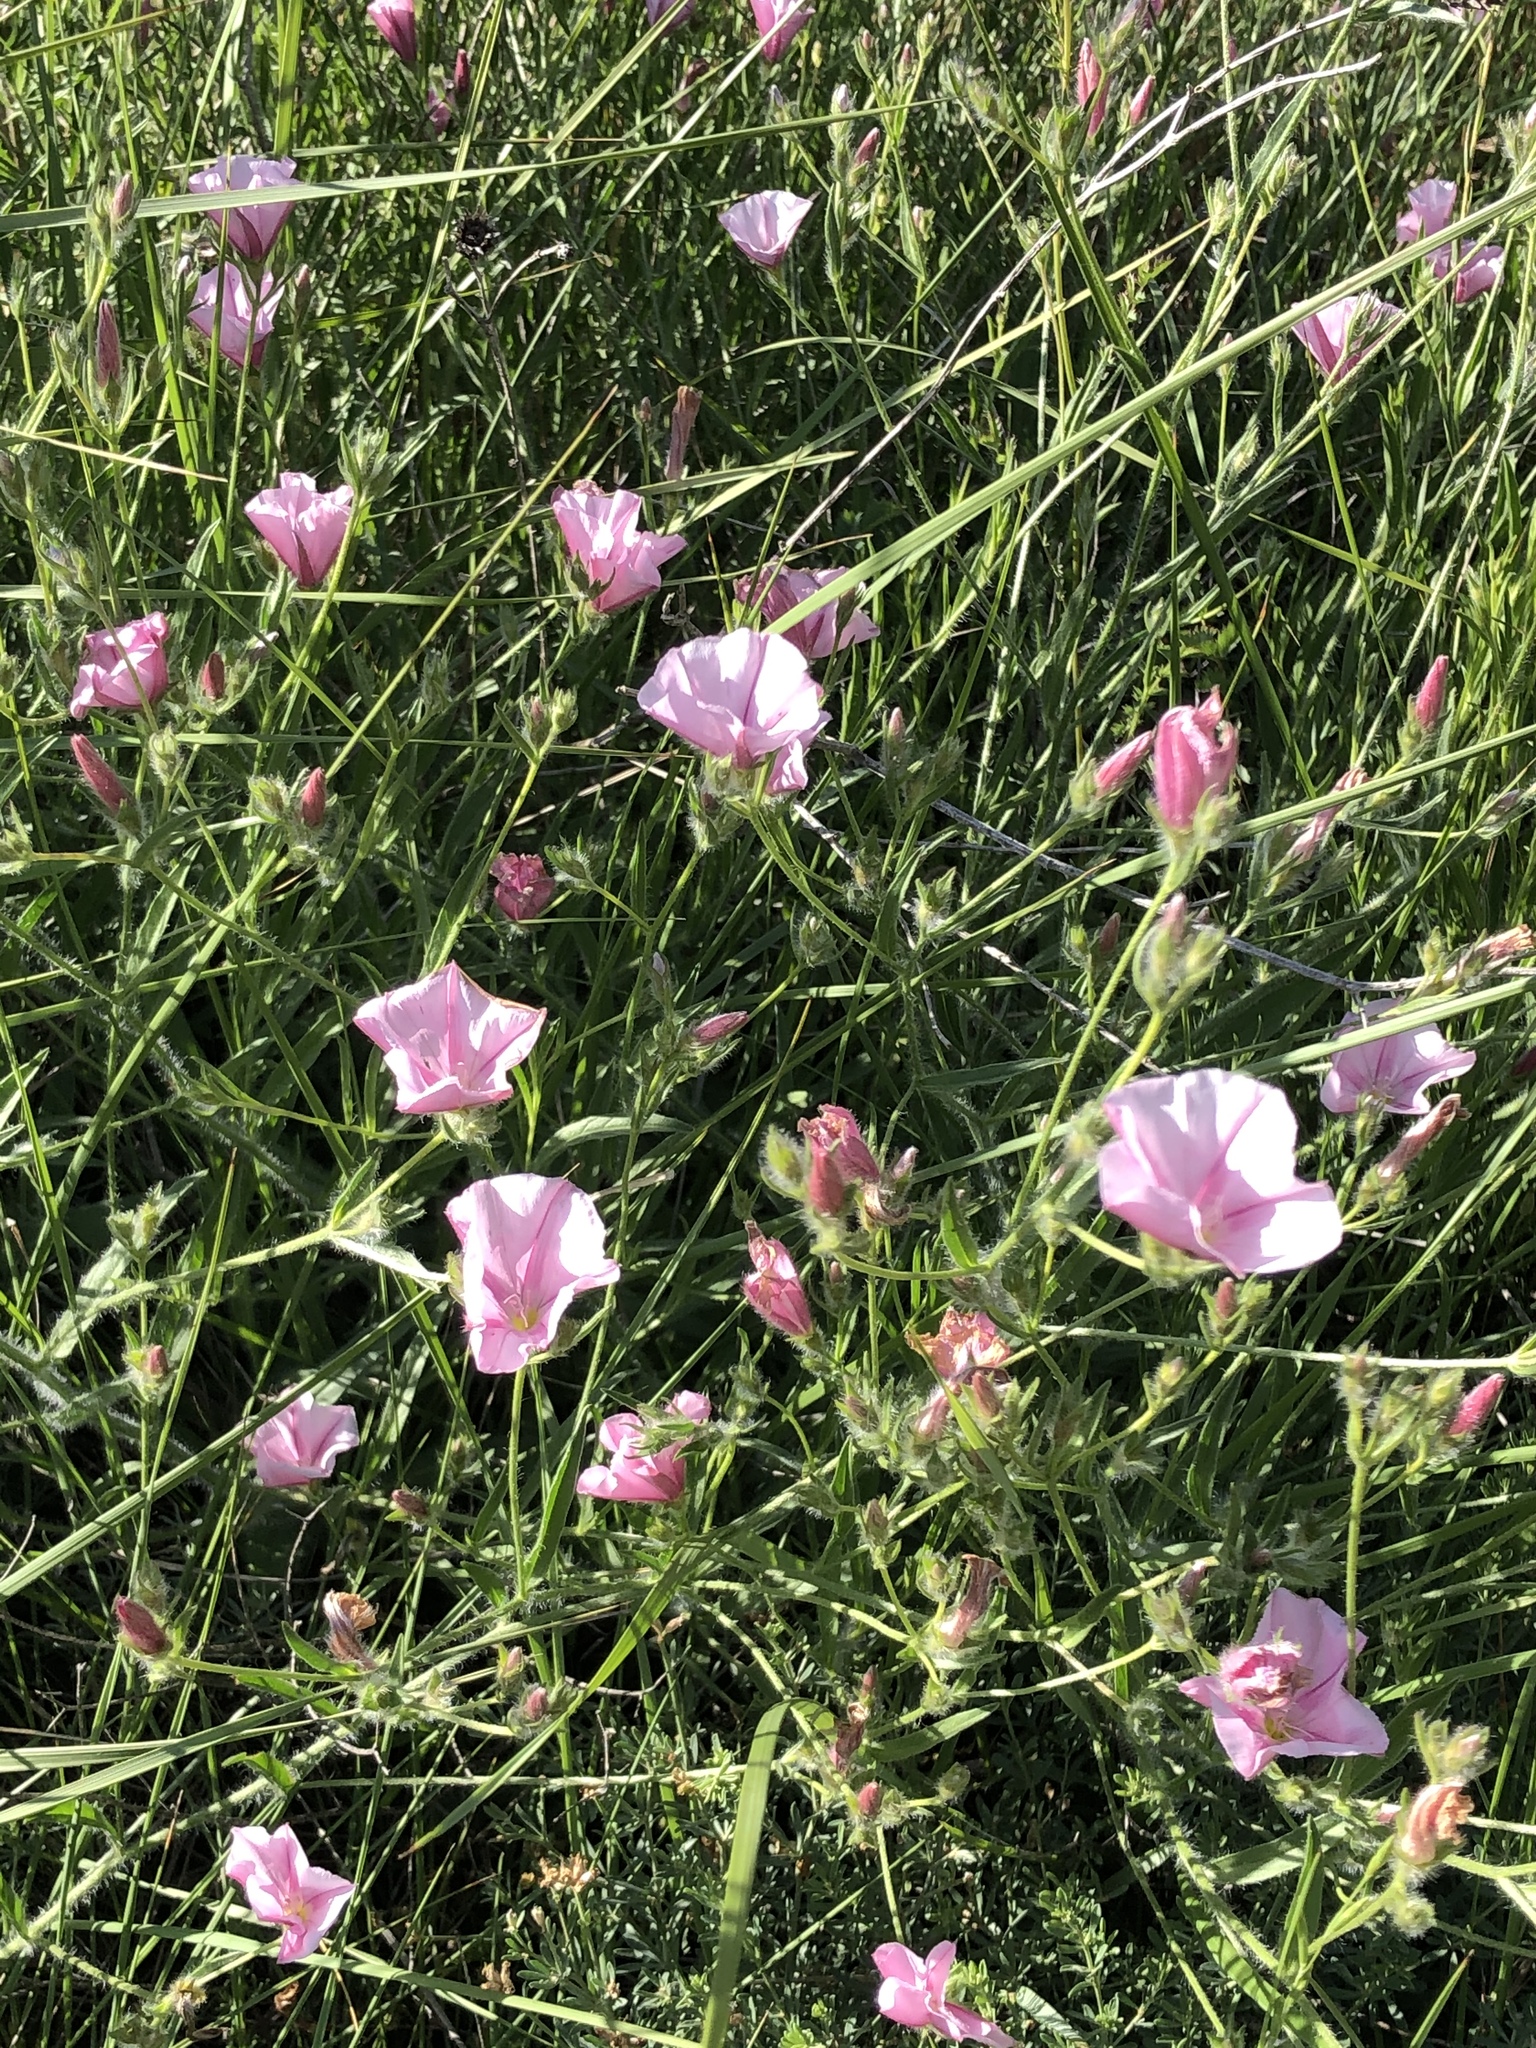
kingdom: Plantae
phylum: Tracheophyta
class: Magnoliopsida
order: Solanales
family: Convolvulaceae
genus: Convolvulus
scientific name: Convolvulus cantabrica
